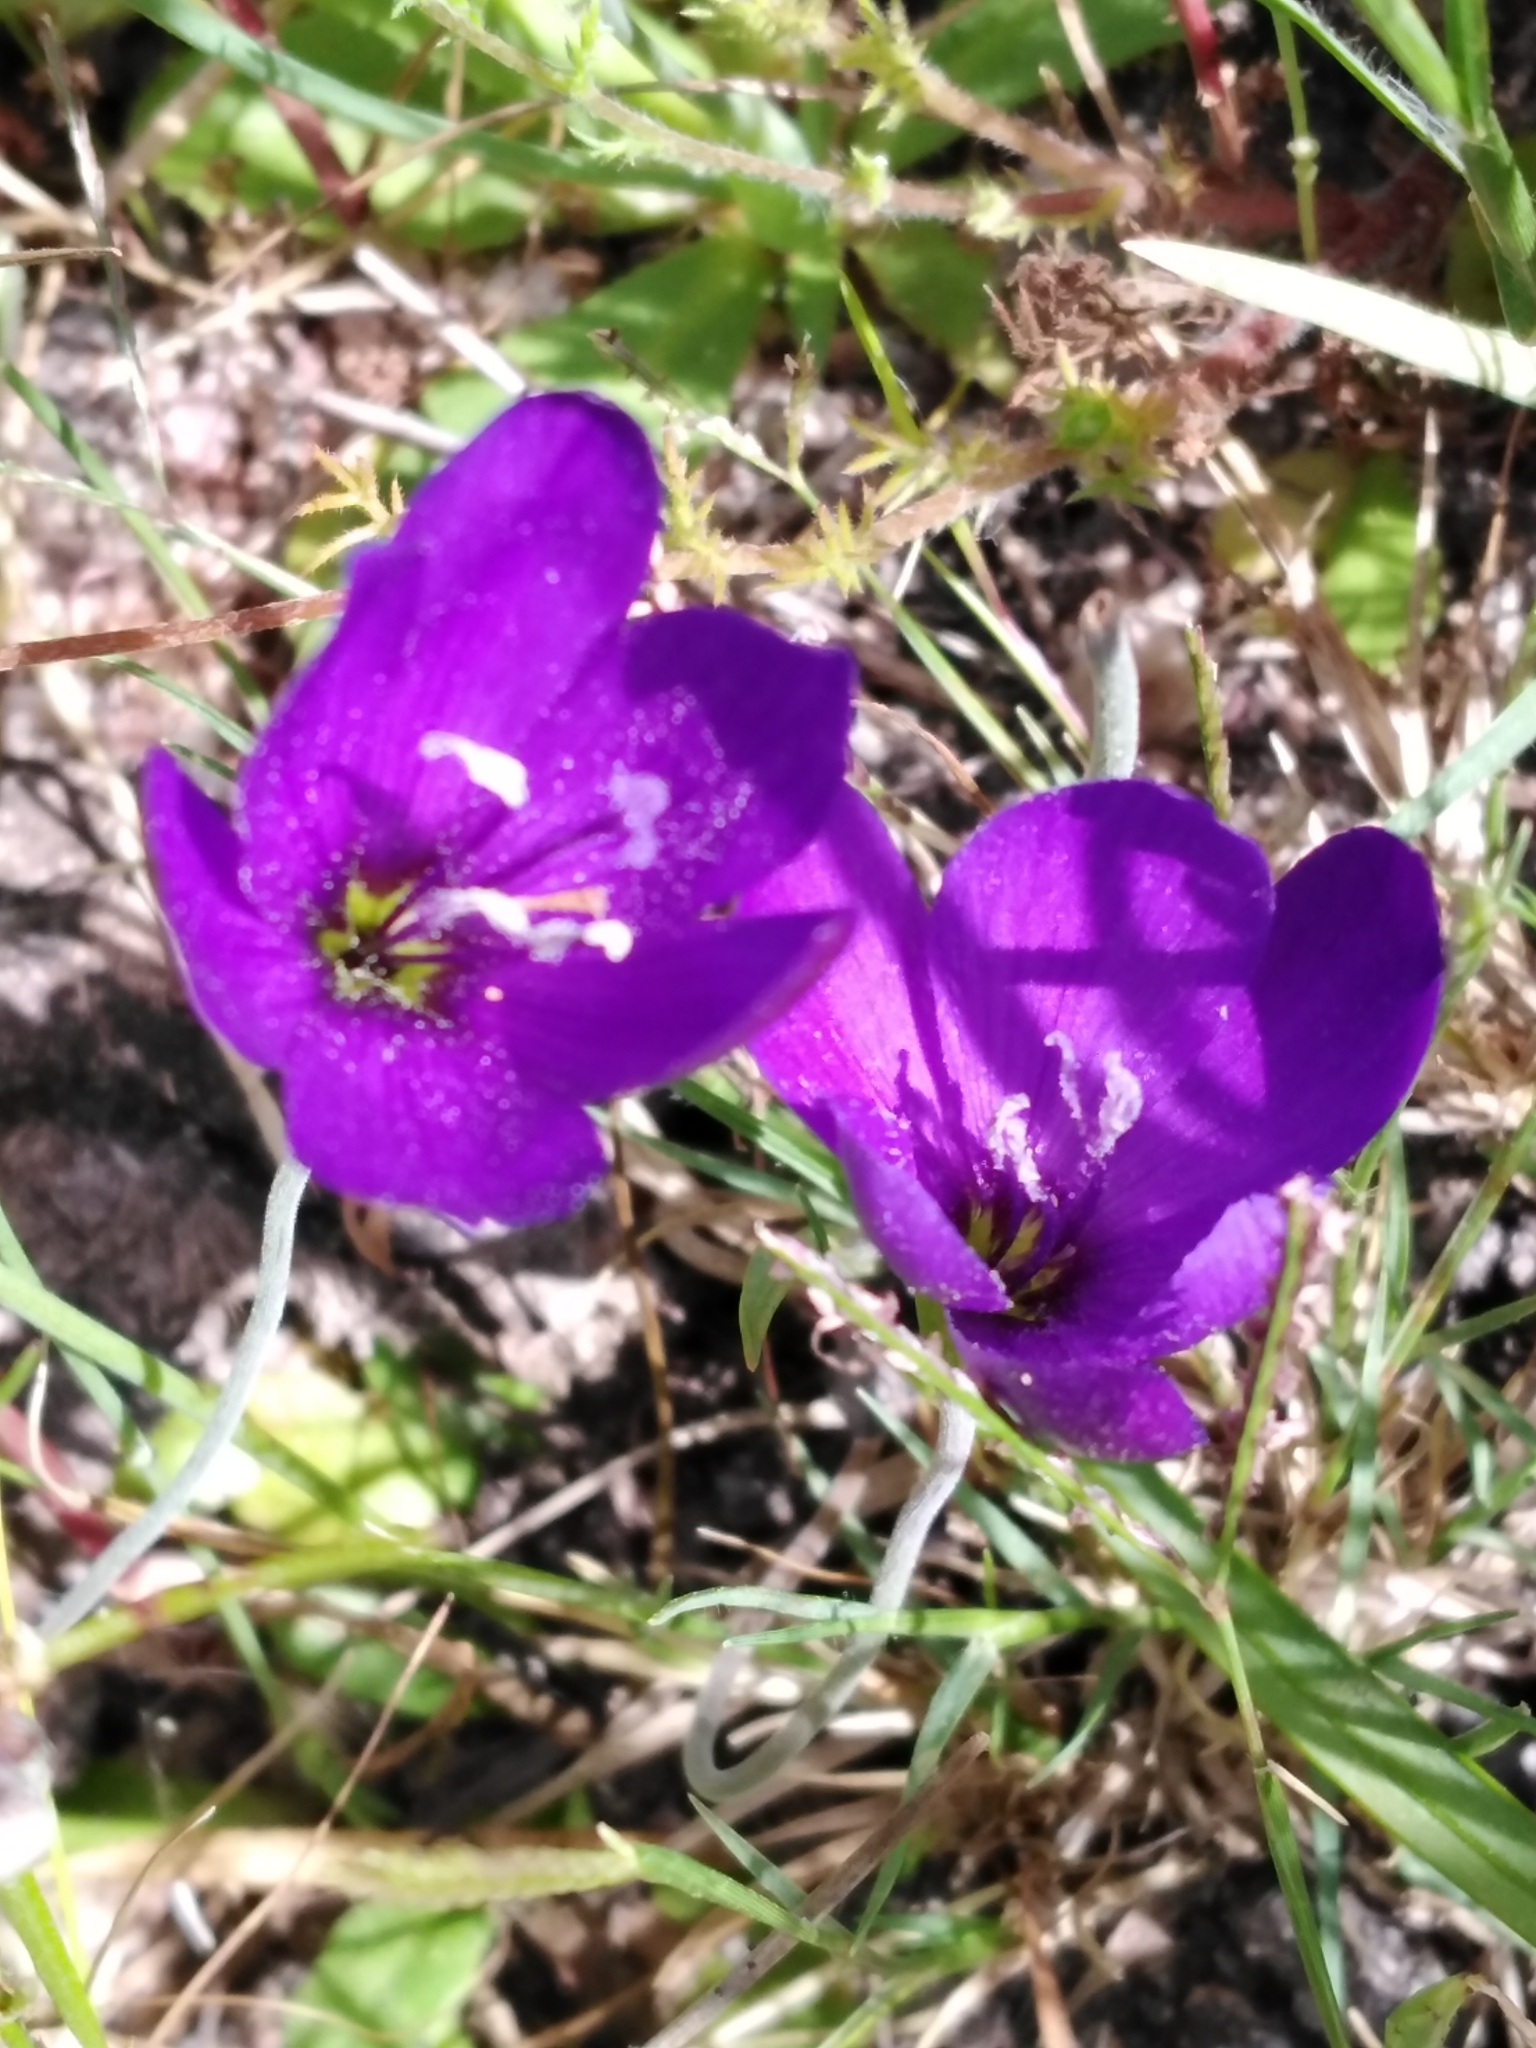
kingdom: Plantae
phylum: Tracheophyta
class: Liliopsida
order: Asparagales
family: Iridaceae
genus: Geissorhiza
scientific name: Geissorhiza aspera
